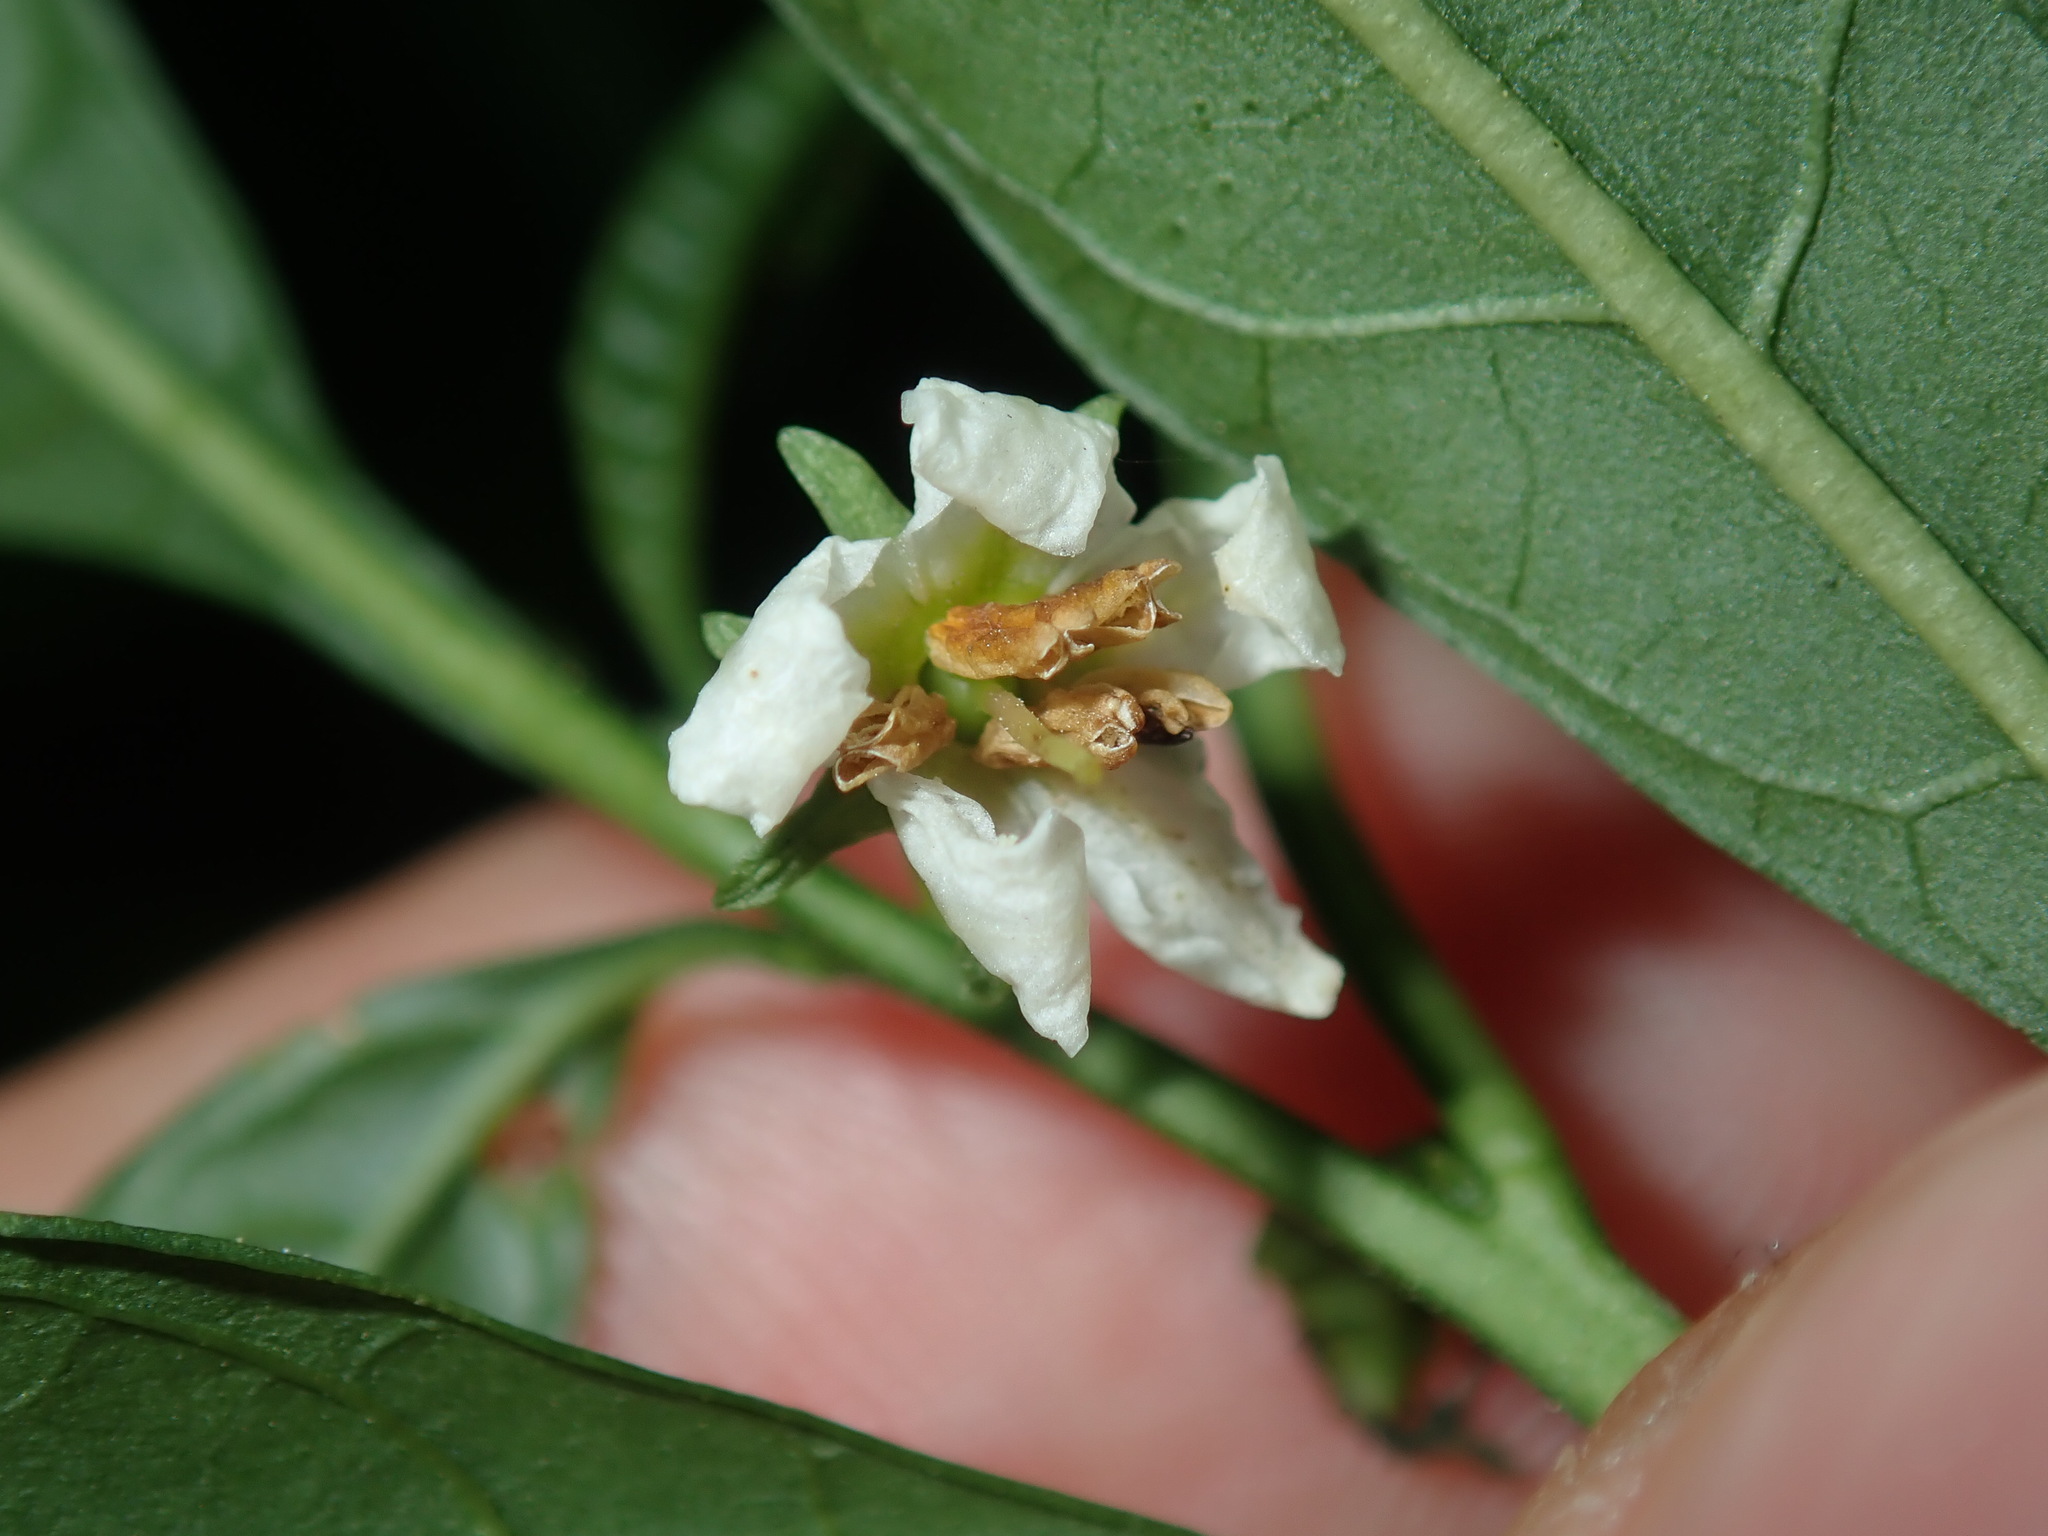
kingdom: Plantae
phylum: Tracheophyta
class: Magnoliopsida
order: Solanales
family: Solanaceae
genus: Solanum
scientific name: Solanum pseudocapsicum
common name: Jerusalem cherry
